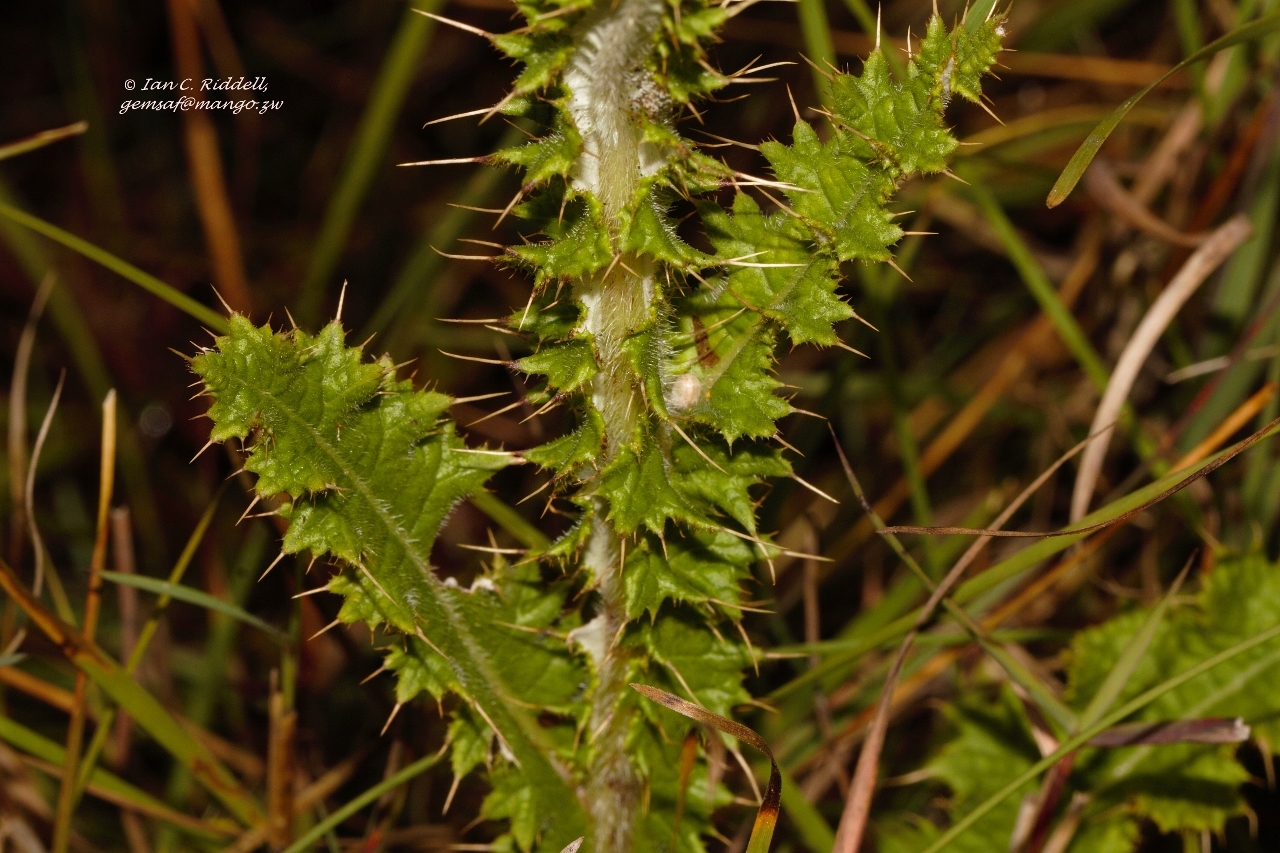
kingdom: Plantae
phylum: Tracheophyta
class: Magnoliopsida
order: Asterales
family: Asteraceae
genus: Berkheya
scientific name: Berkheya radula
